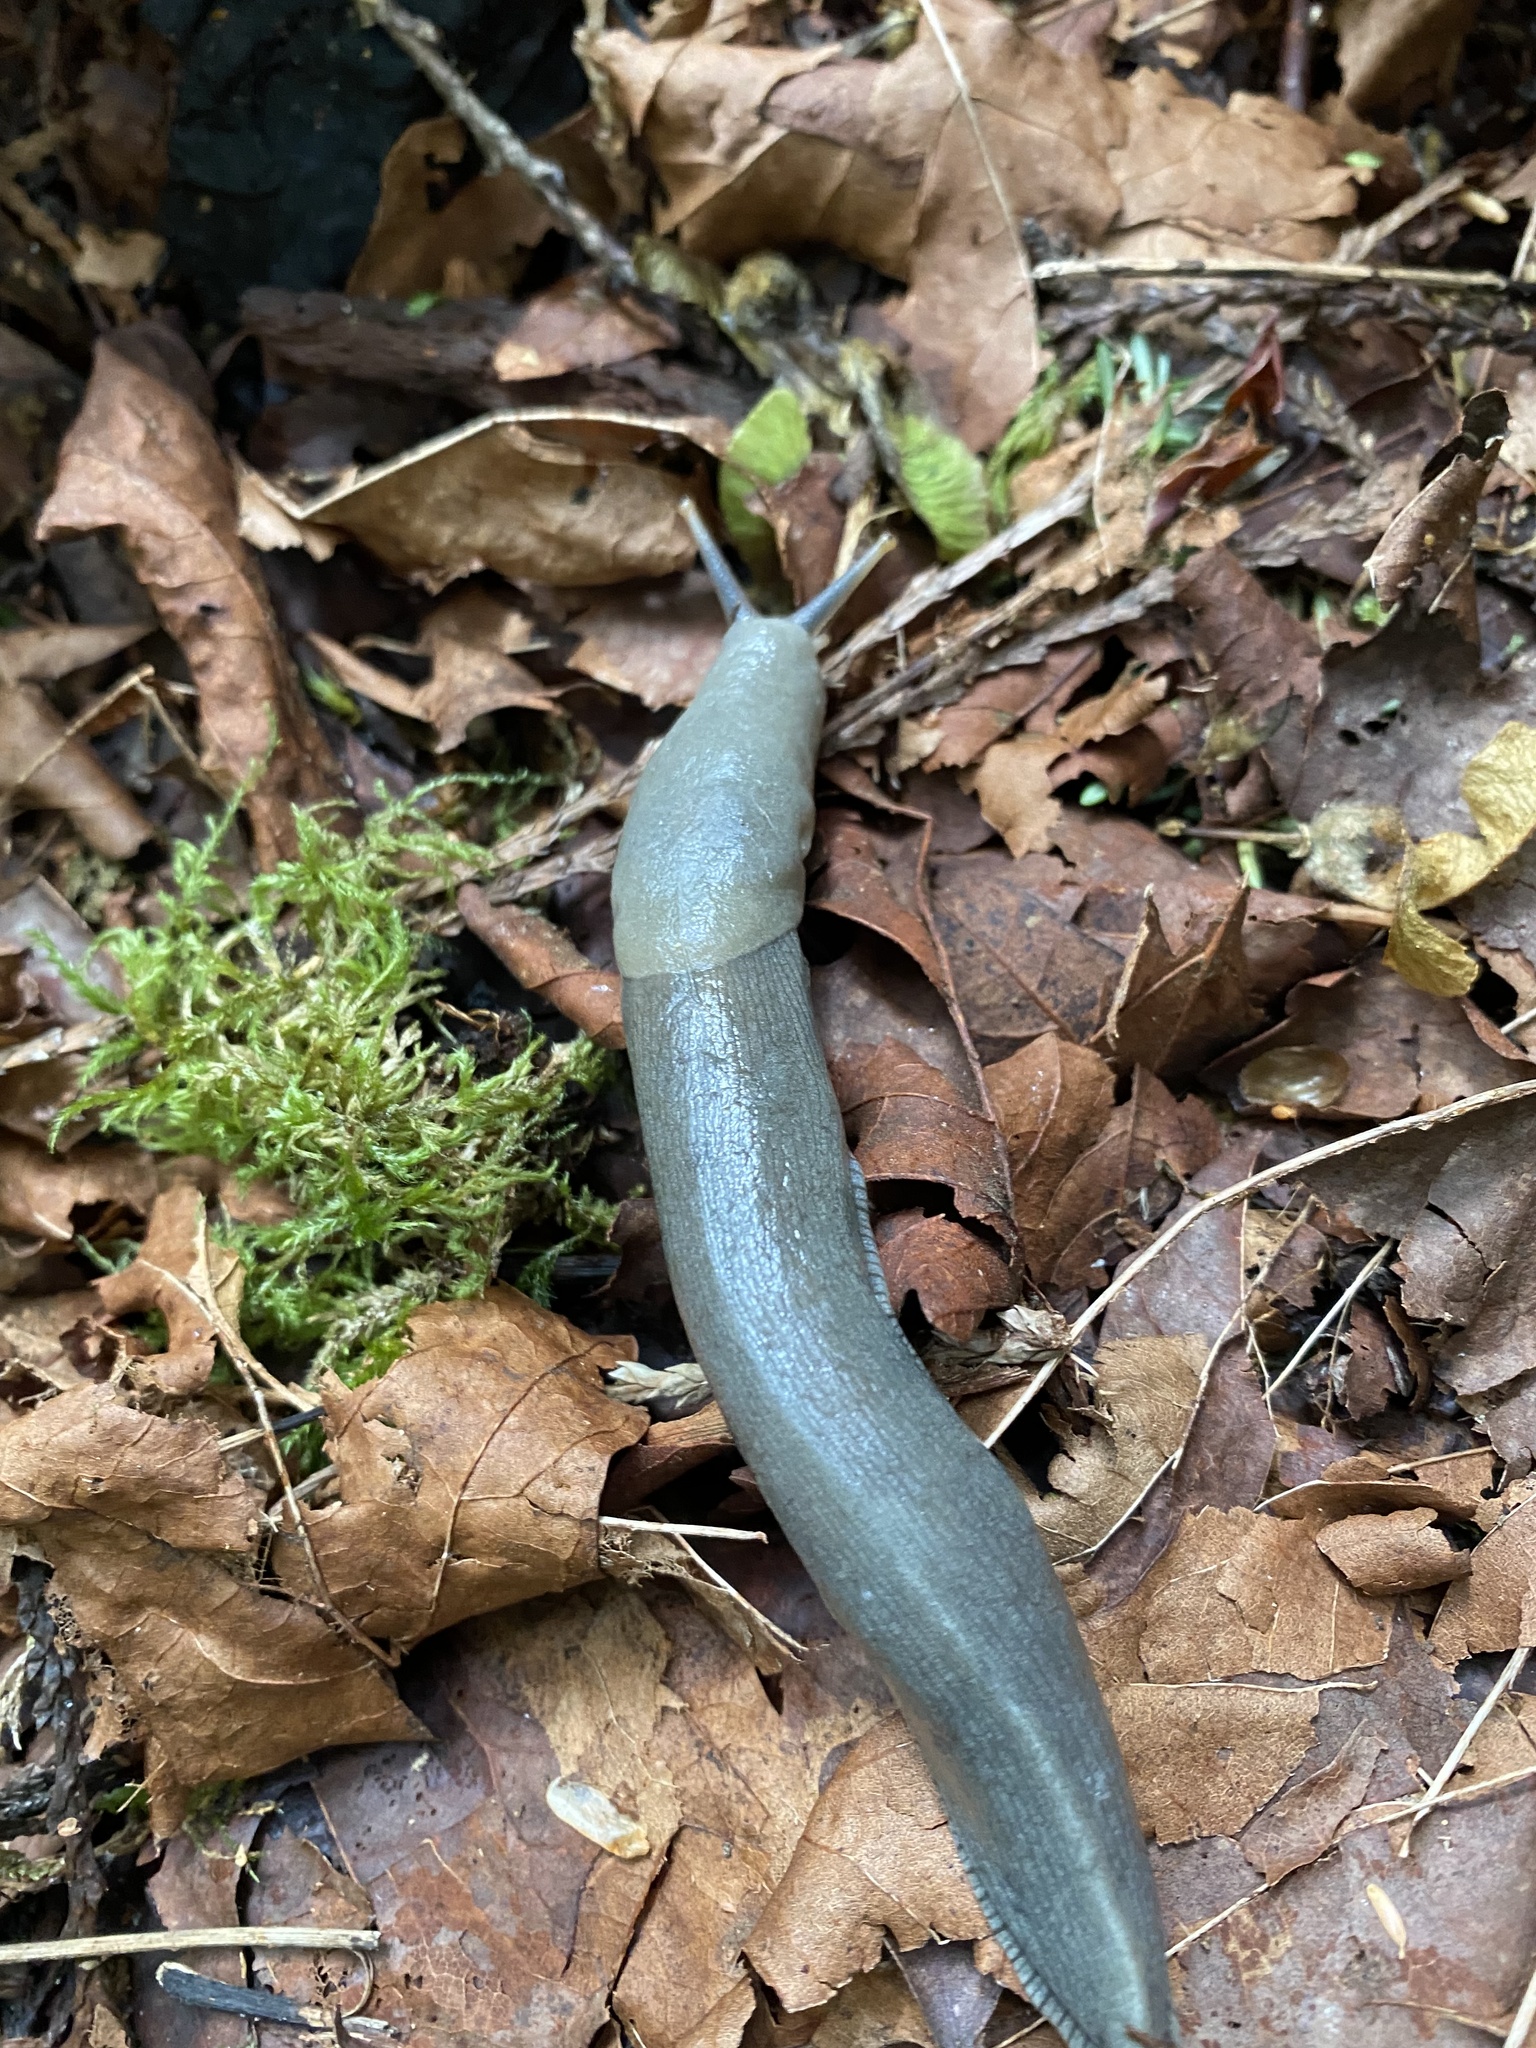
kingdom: Animalia
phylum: Mollusca
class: Gastropoda
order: Stylommatophora
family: Ariolimacidae
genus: Ariolimax
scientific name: Ariolimax columbianus
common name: Pacific banana slug
